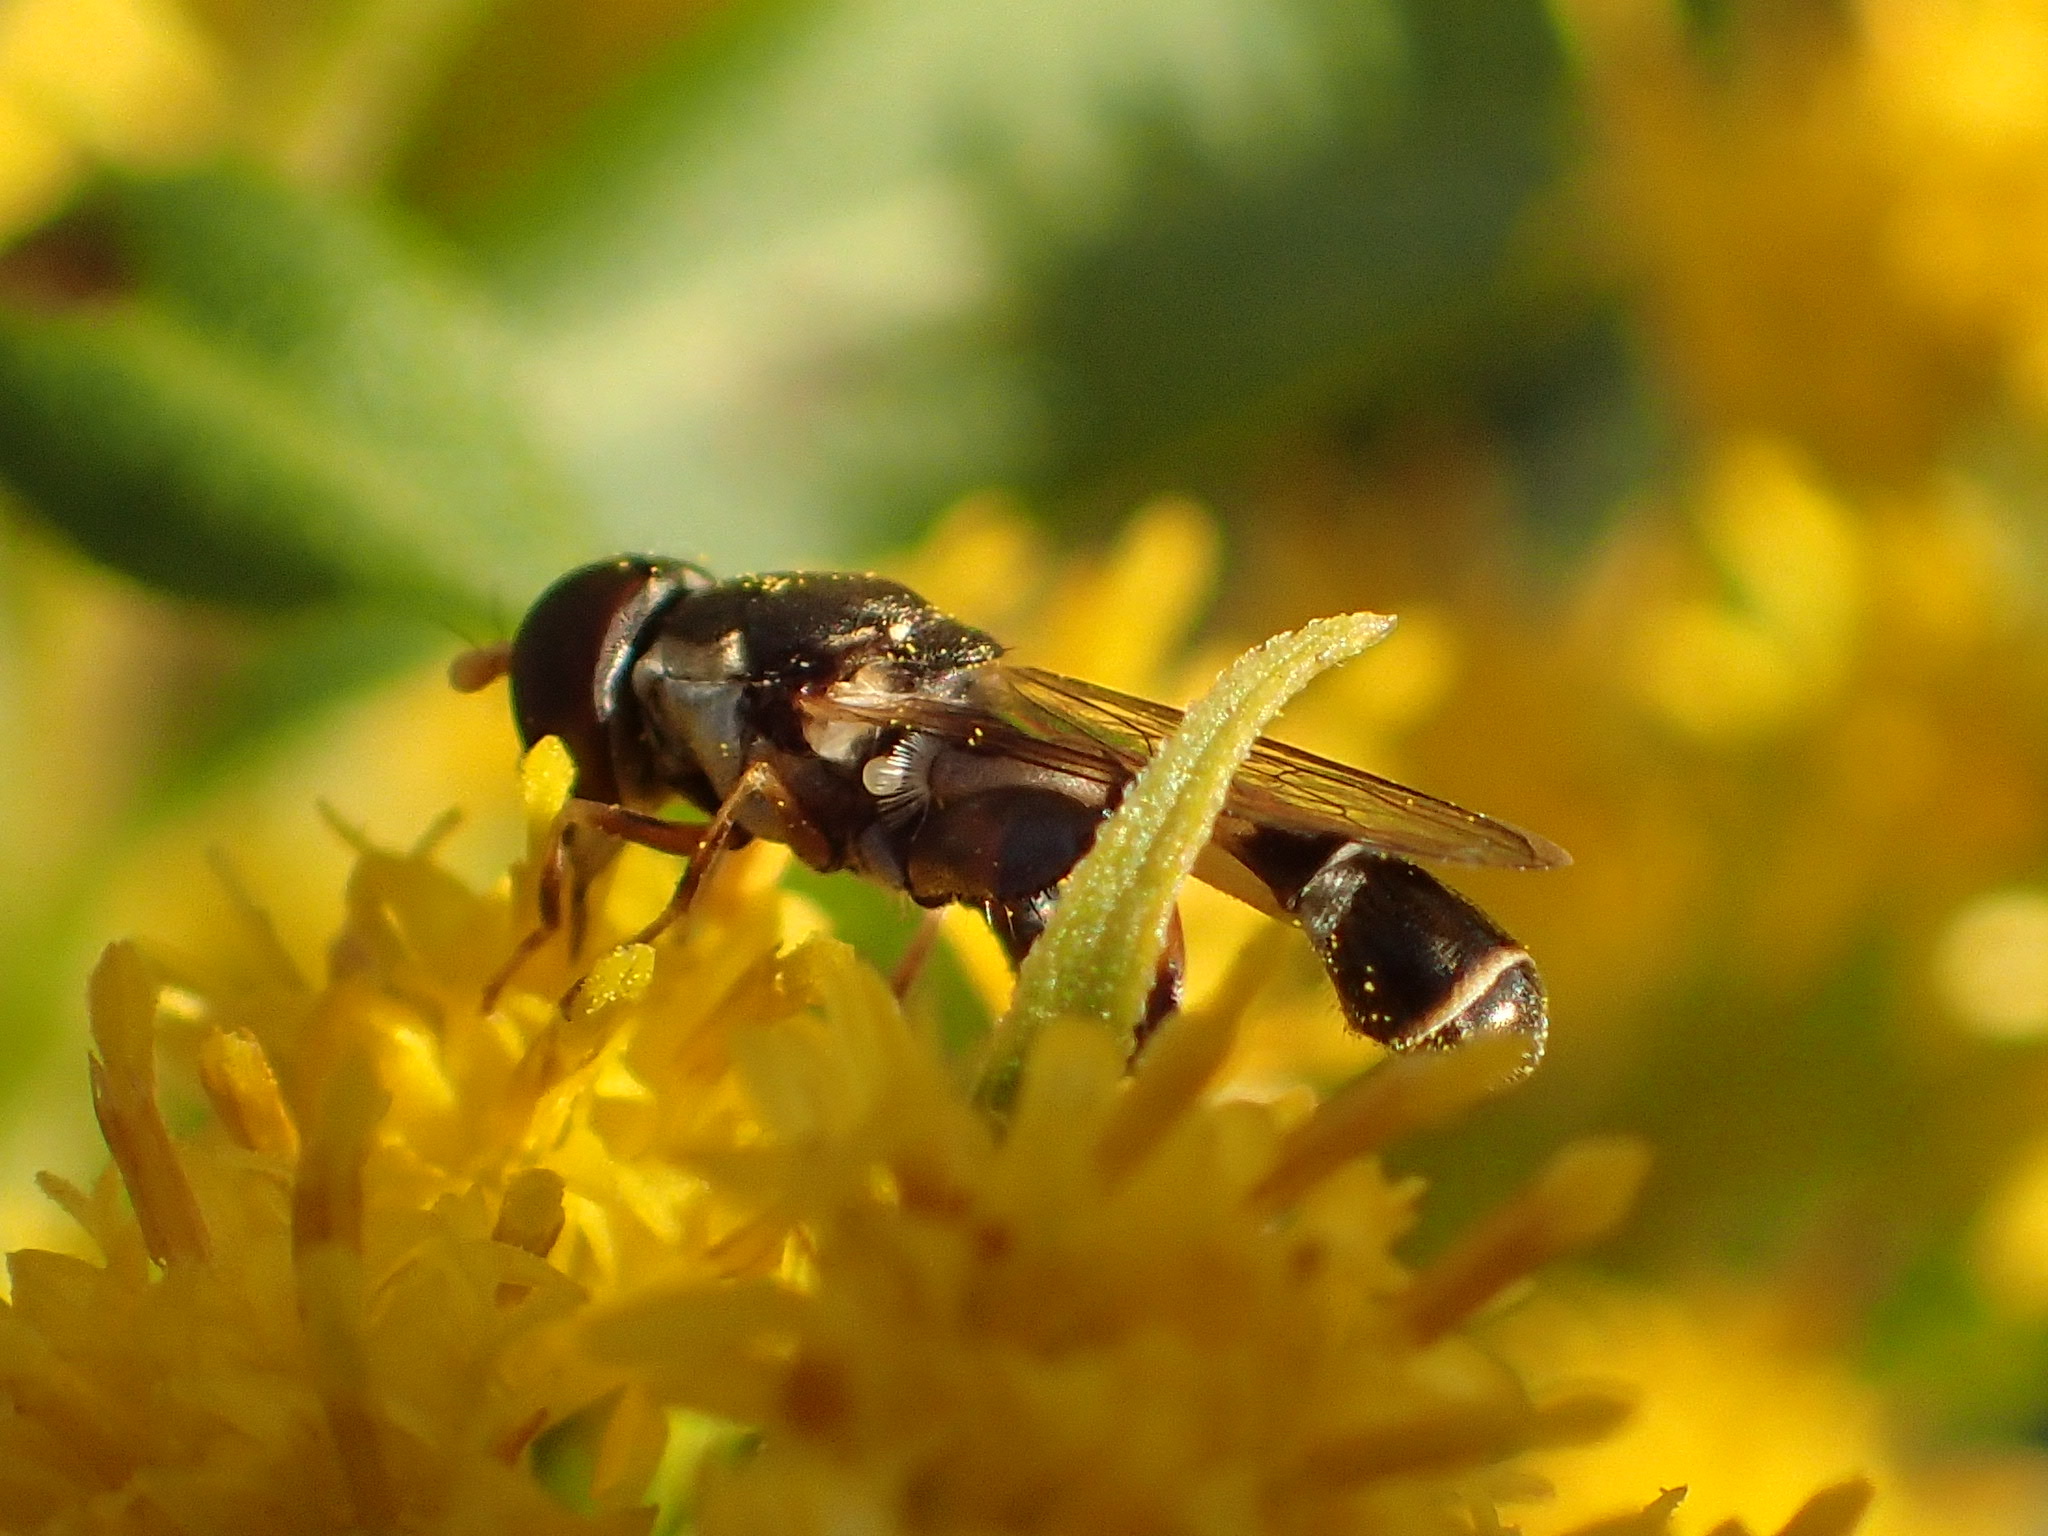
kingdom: Animalia
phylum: Arthropoda
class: Insecta
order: Diptera
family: Syrphidae
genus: Syritta
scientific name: Syritta pipiens
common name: Hover fly
